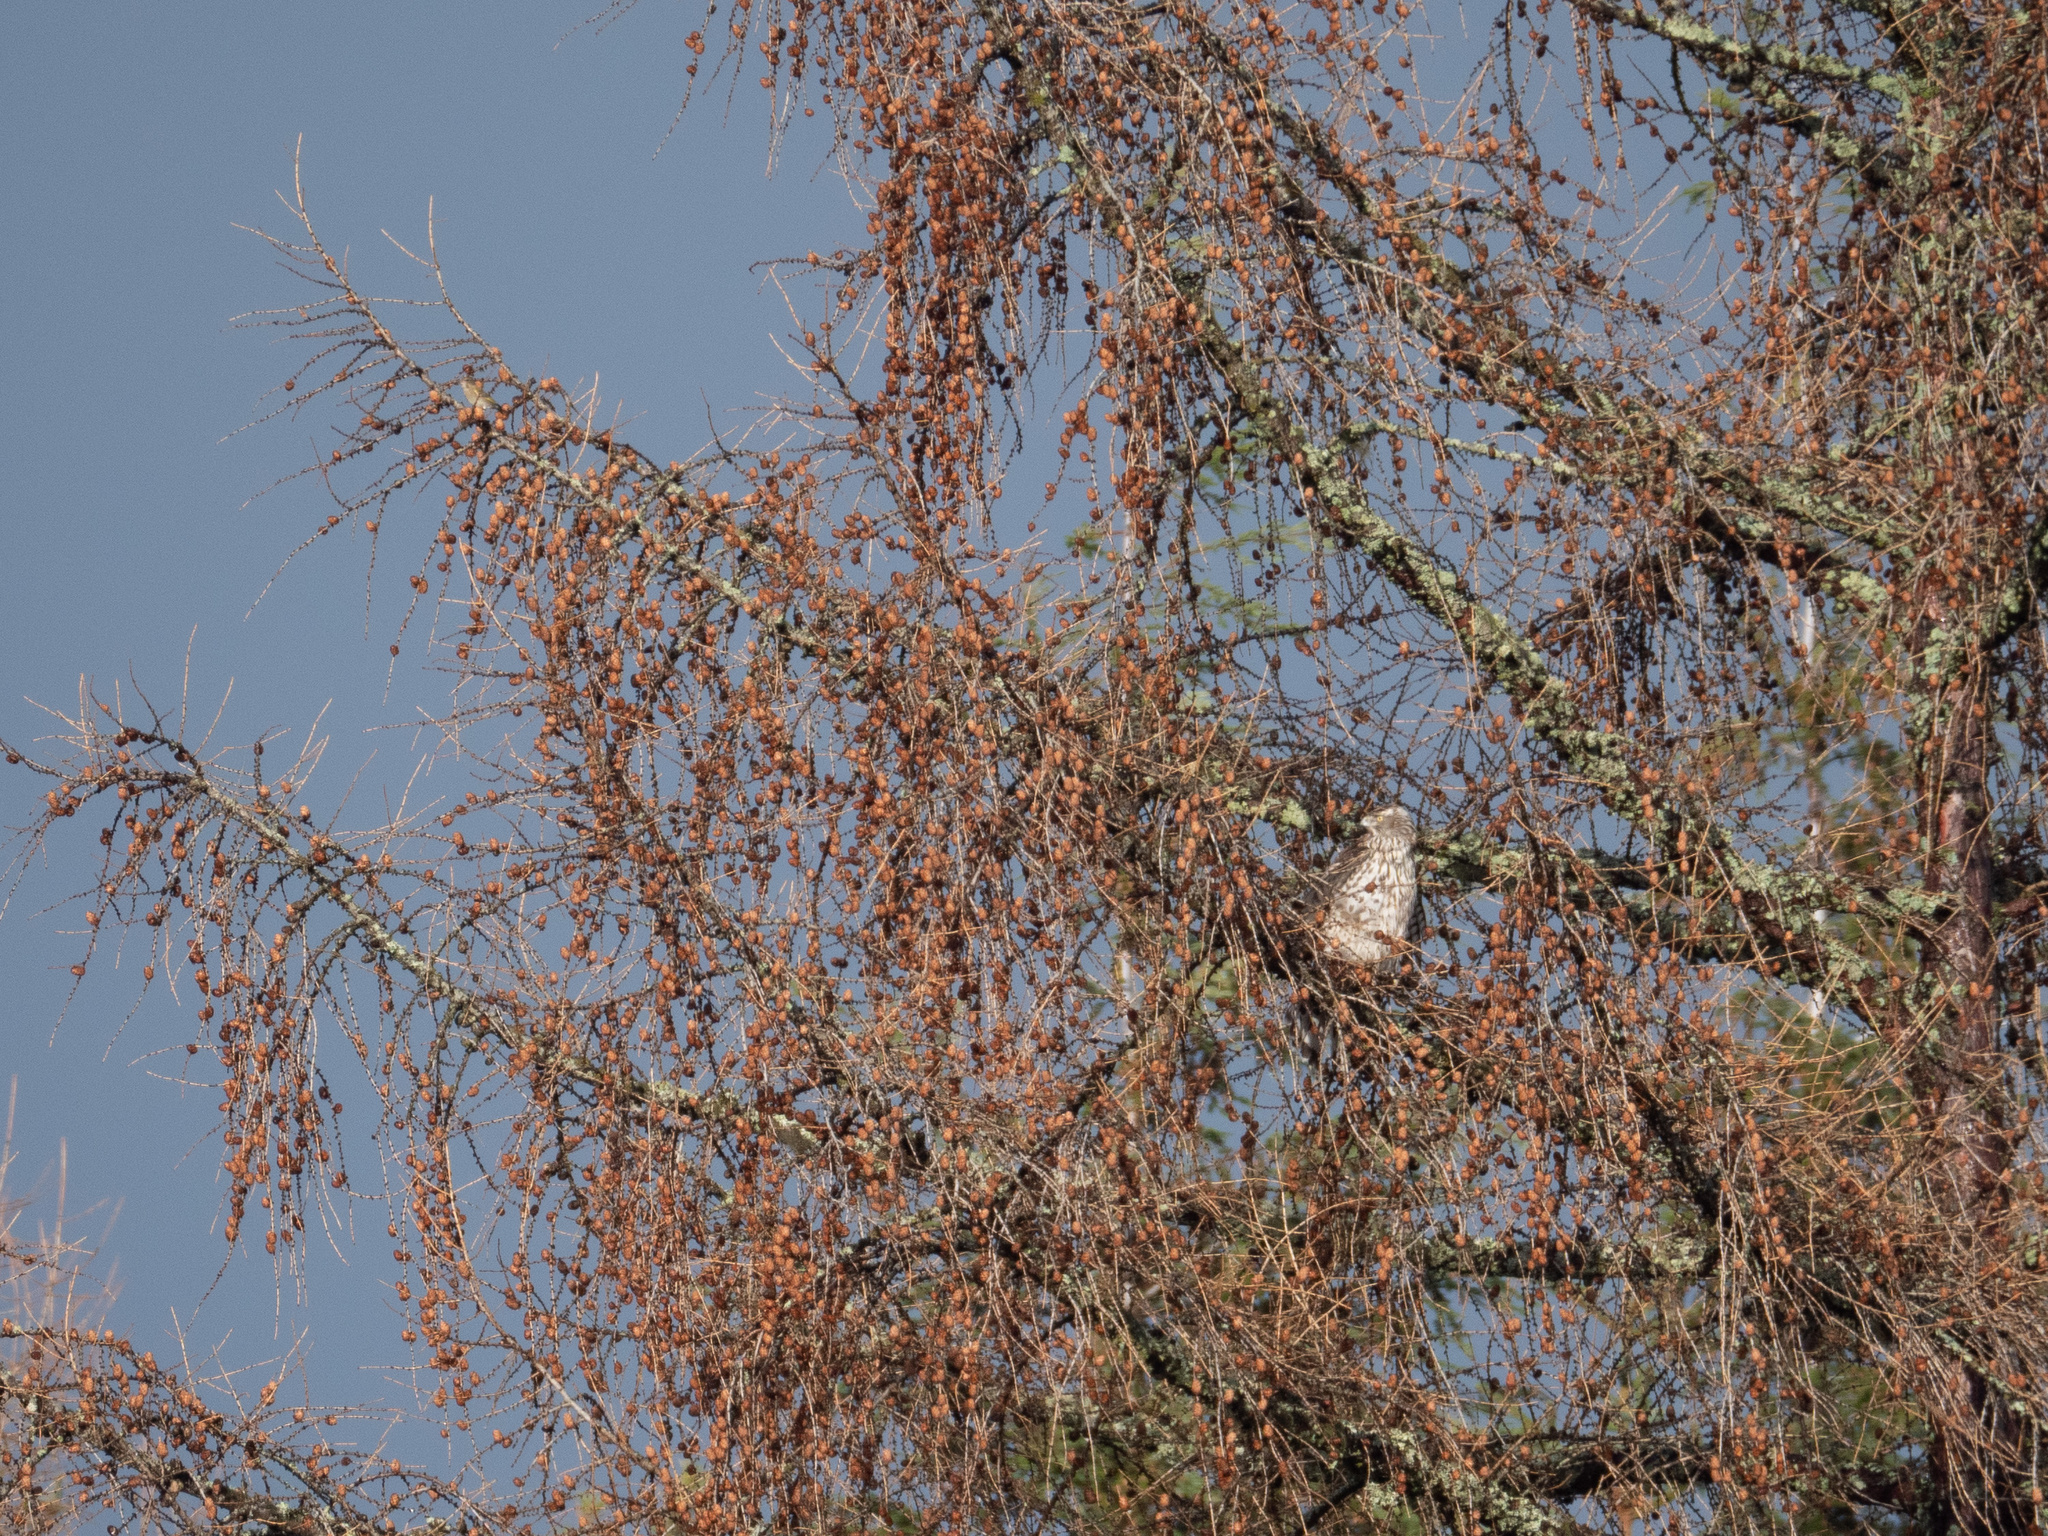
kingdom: Animalia
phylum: Chordata
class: Aves
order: Accipitriformes
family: Accipitridae
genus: Accipiter
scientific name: Accipiter gentilis
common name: Northern goshawk
